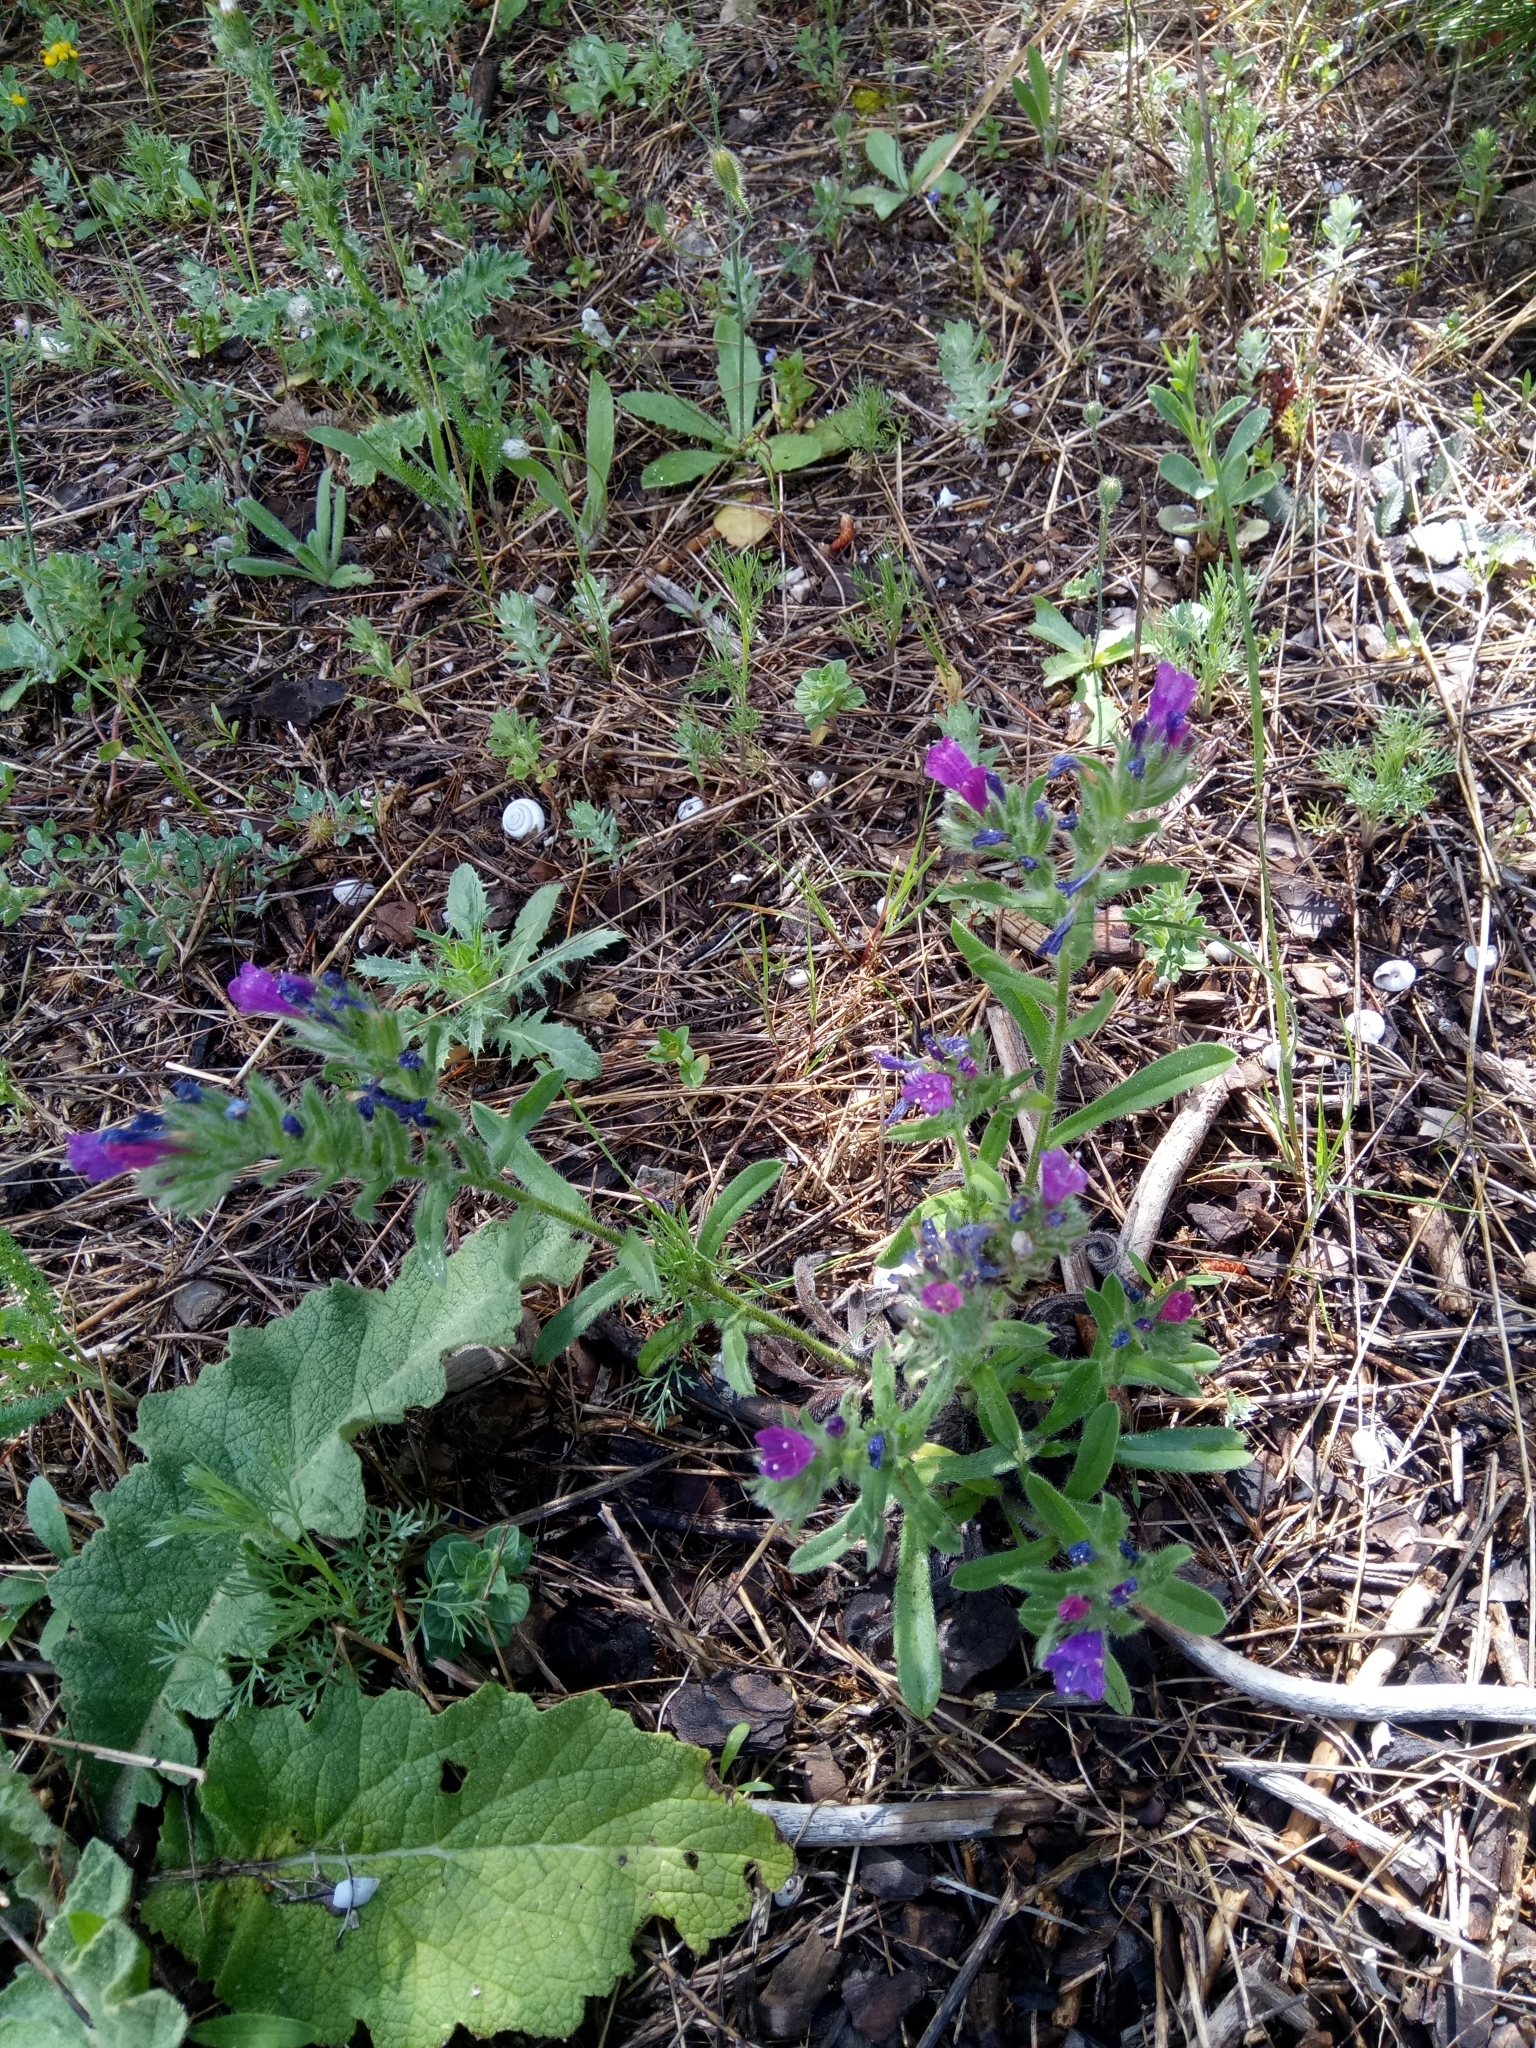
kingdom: Plantae
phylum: Tracheophyta
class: Magnoliopsida
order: Boraginales
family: Boraginaceae
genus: Echium
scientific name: Echium sabulicola
